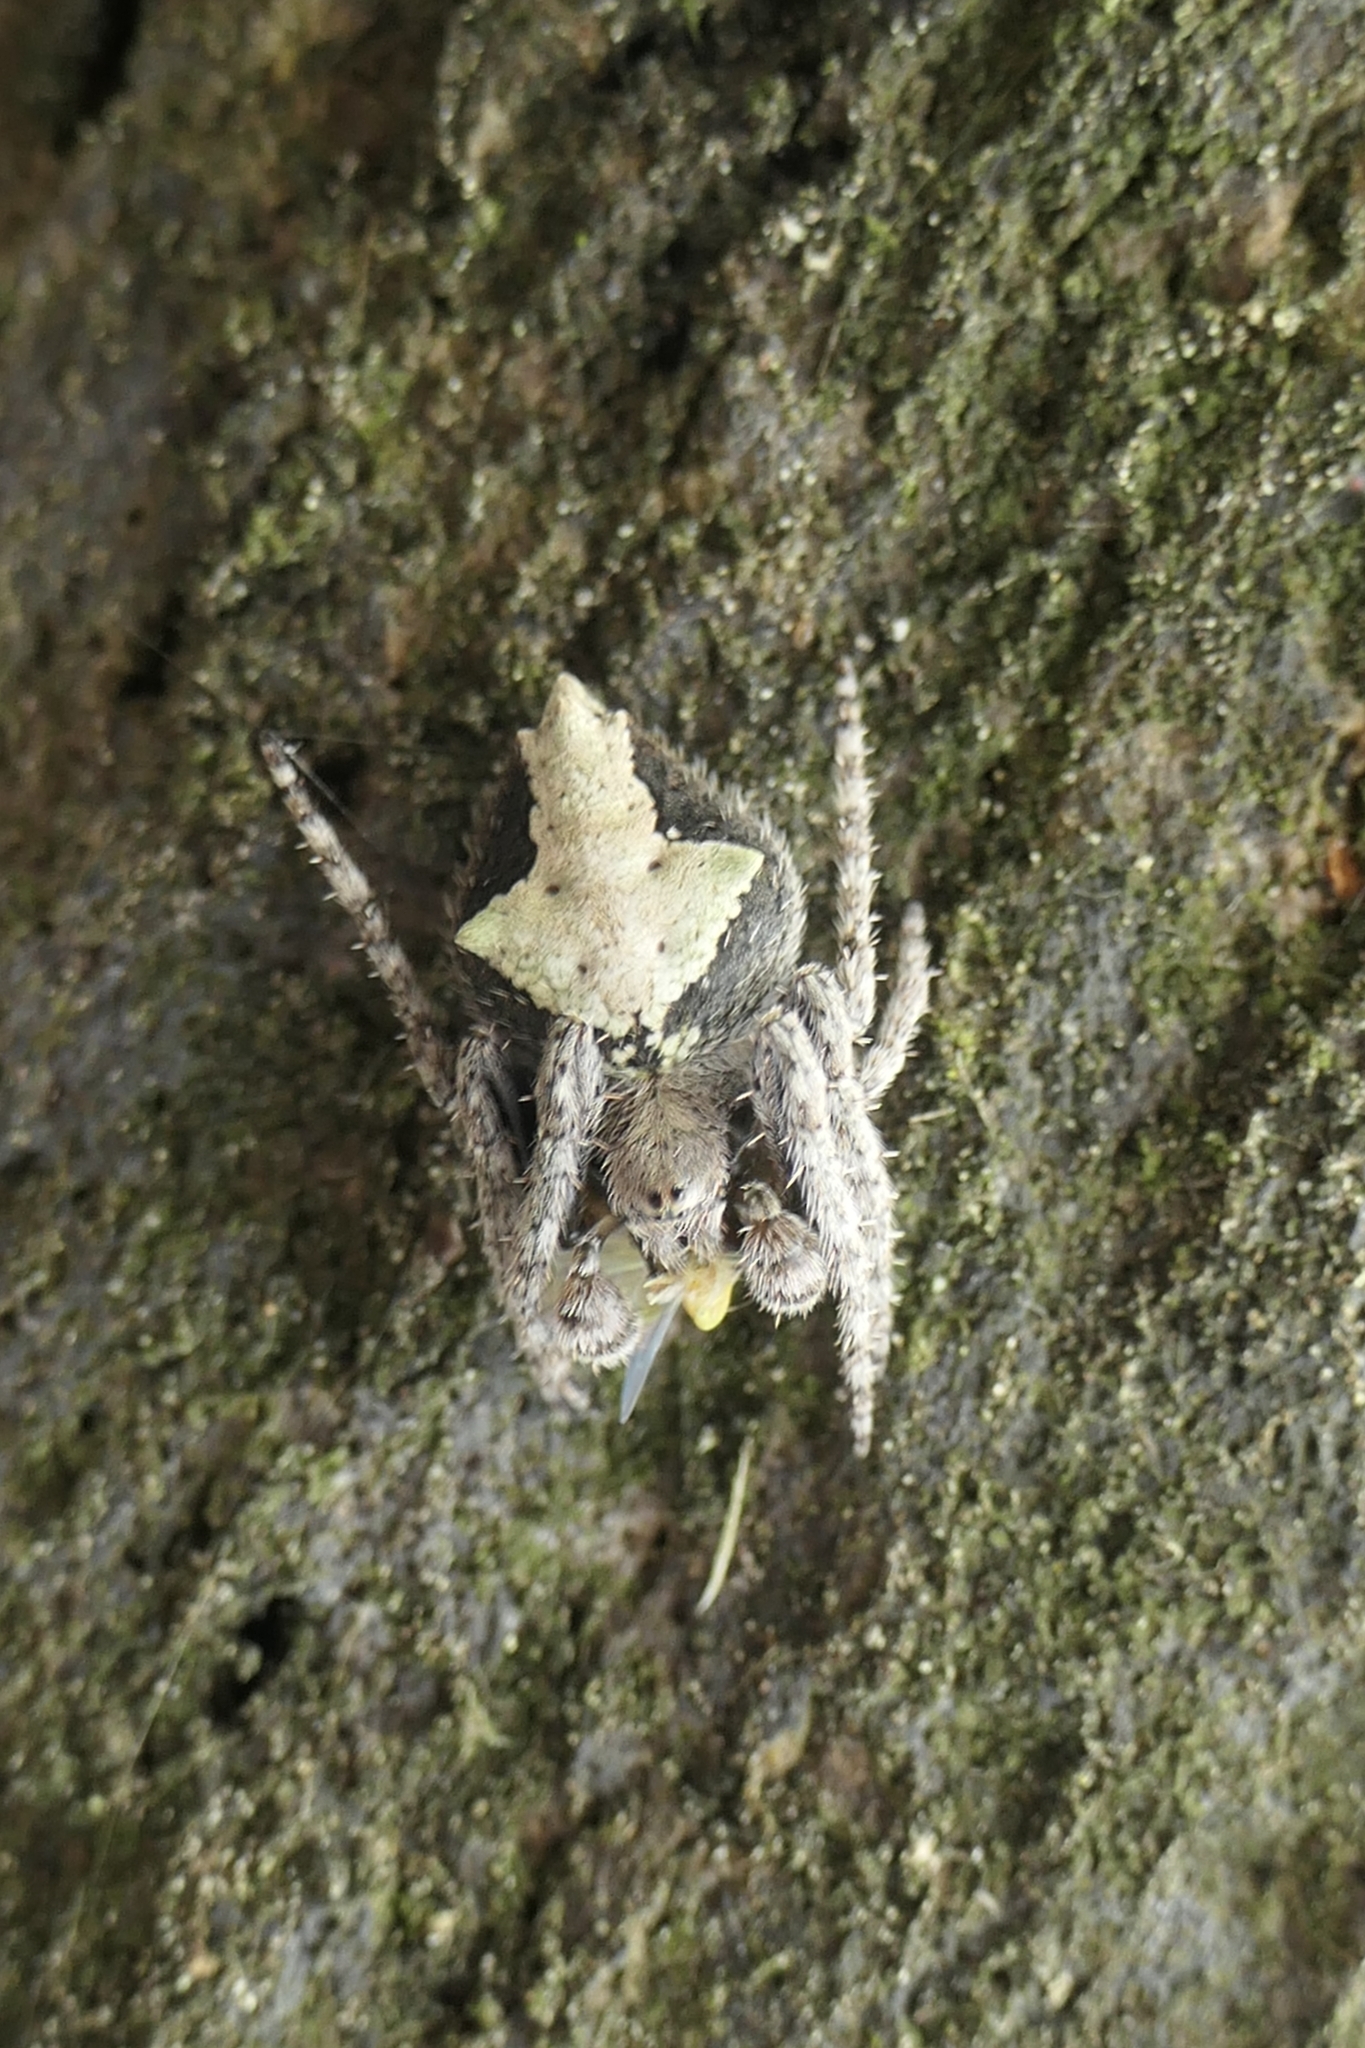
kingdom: Animalia
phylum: Arthropoda
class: Arachnida
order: Araneae
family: Araneidae
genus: Eriophora
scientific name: Eriophora pustulosa
